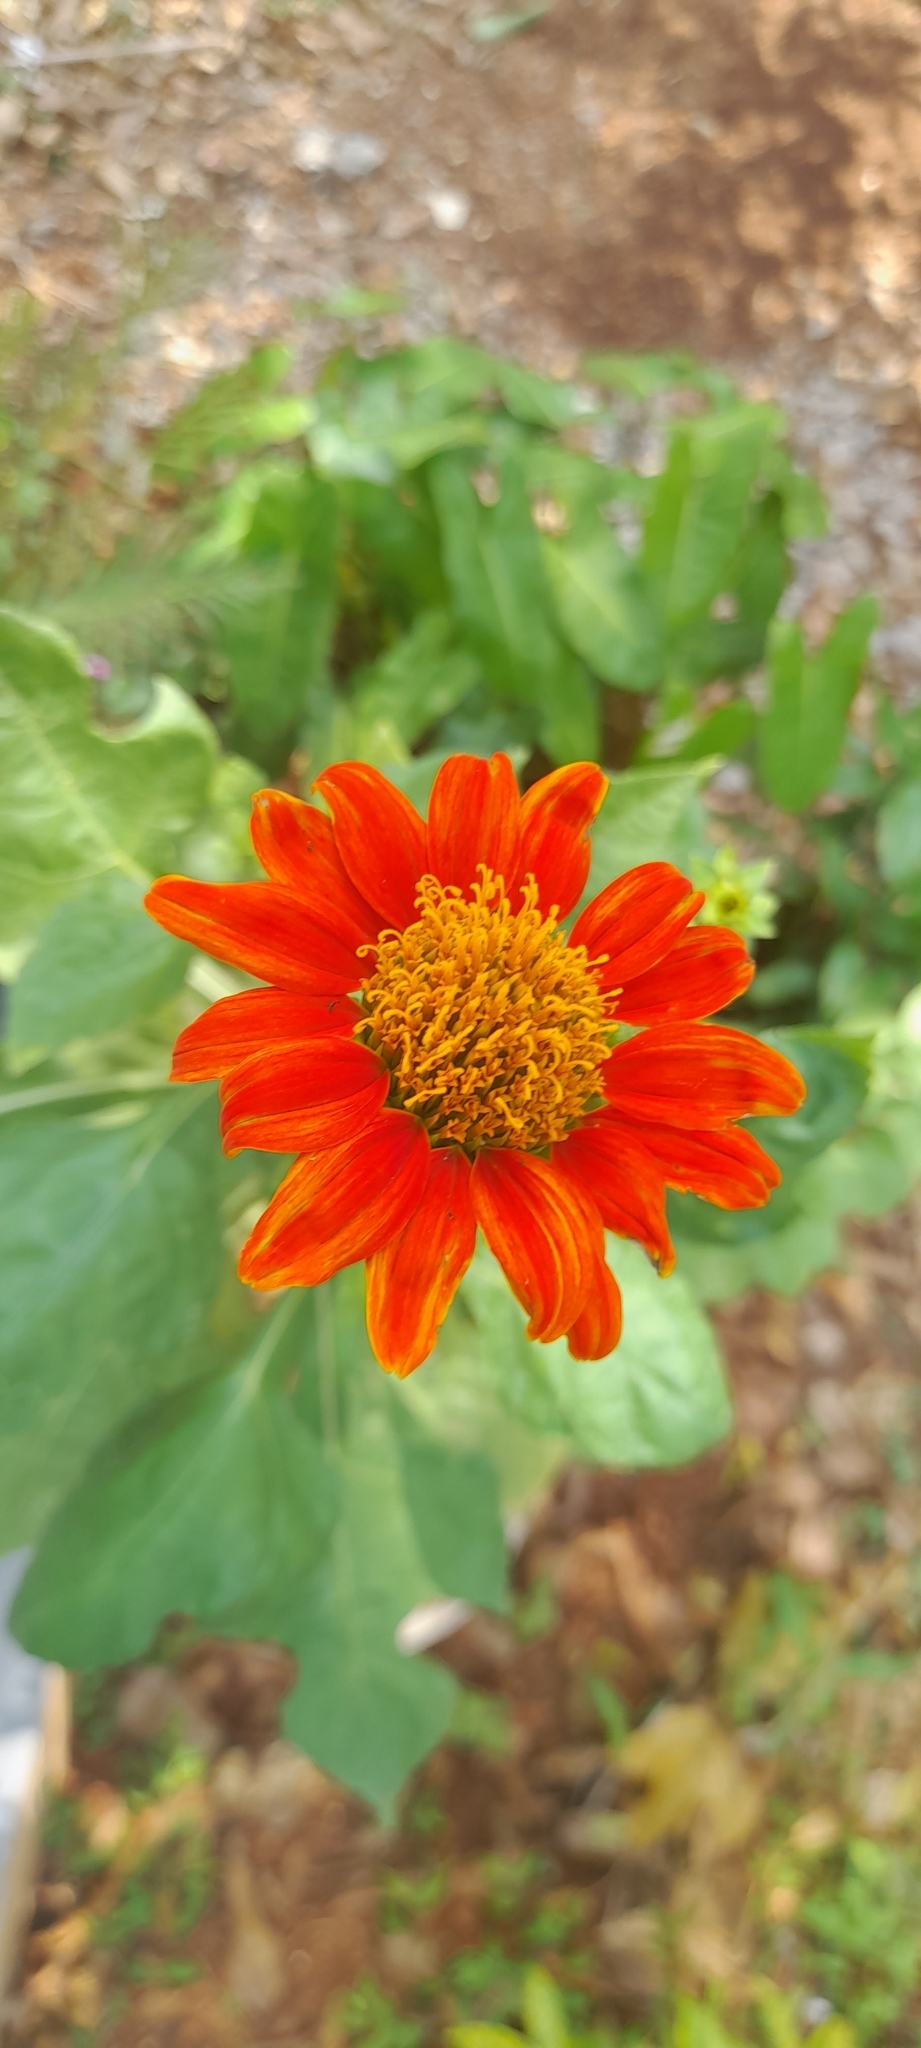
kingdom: Plantae
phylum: Tracheophyta
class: Magnoliopsida
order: Asterales
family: Asteraceae
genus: Tithonia
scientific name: Tithonia rotundifolia
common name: Sunflower
